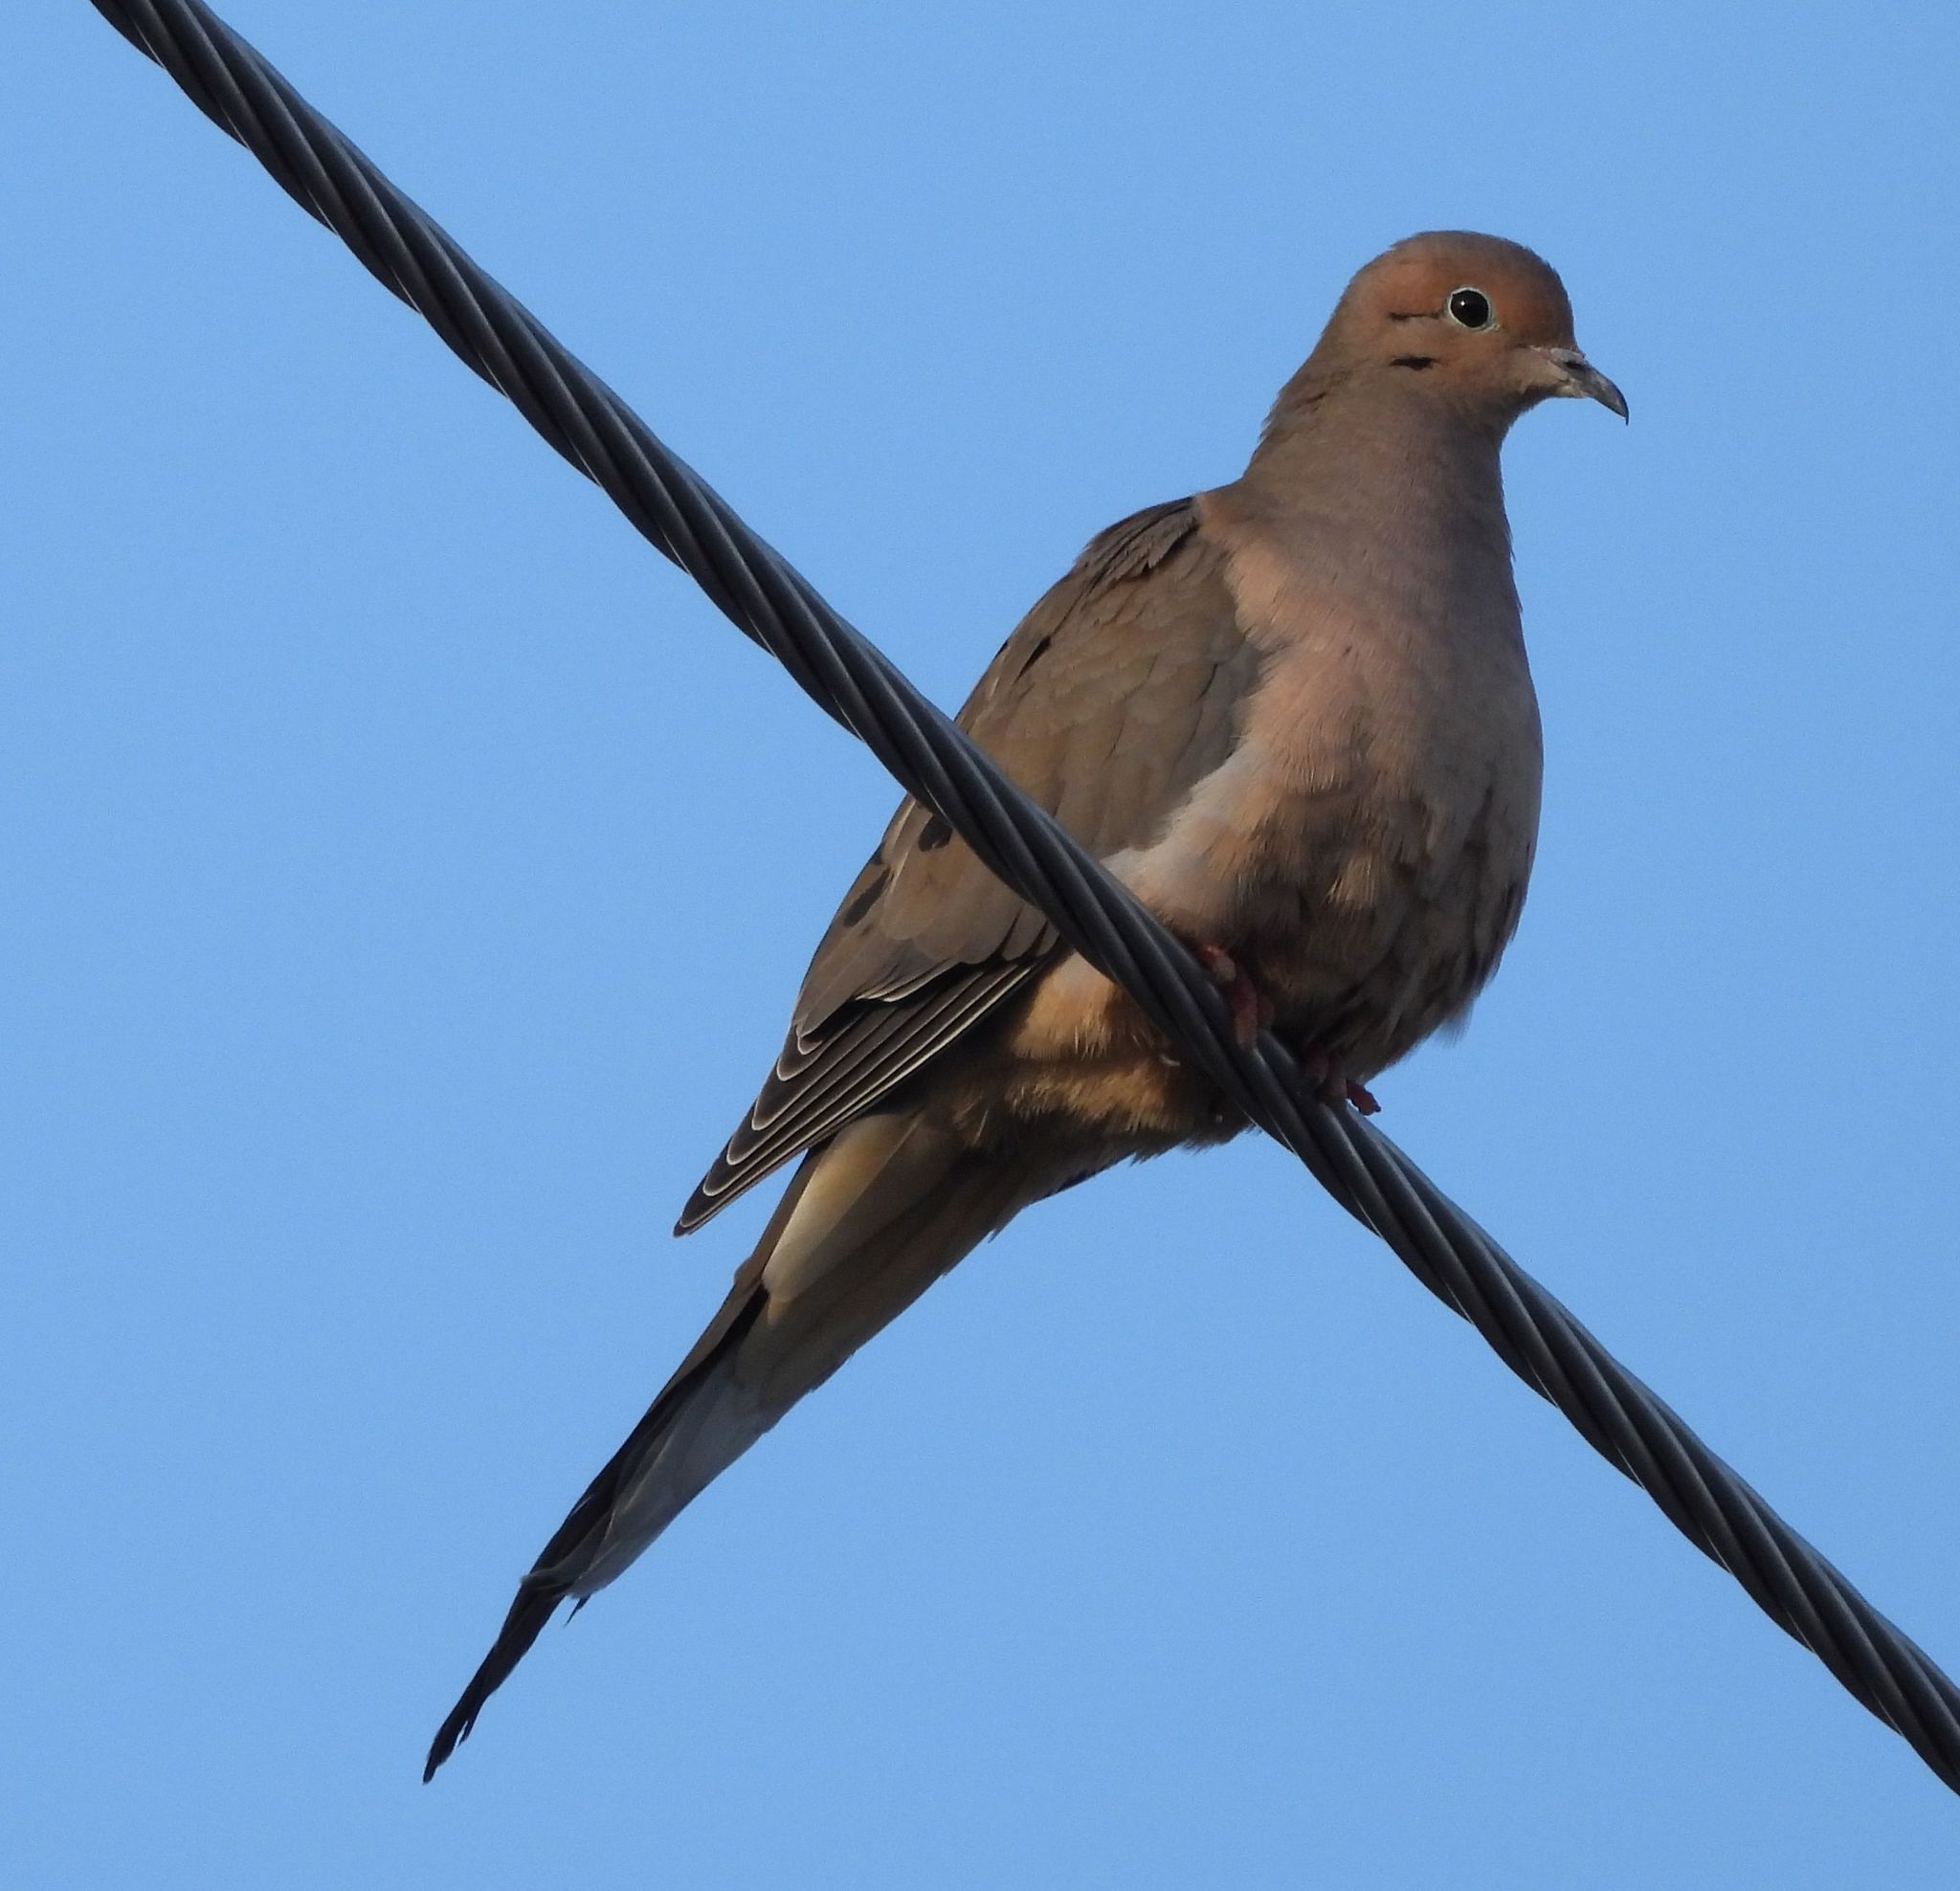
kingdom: Animalia
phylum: Chordata
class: Aves
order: Columbiformes
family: Columbidae
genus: Zenaida
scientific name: Zenaida macroura
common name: Mourning dove
